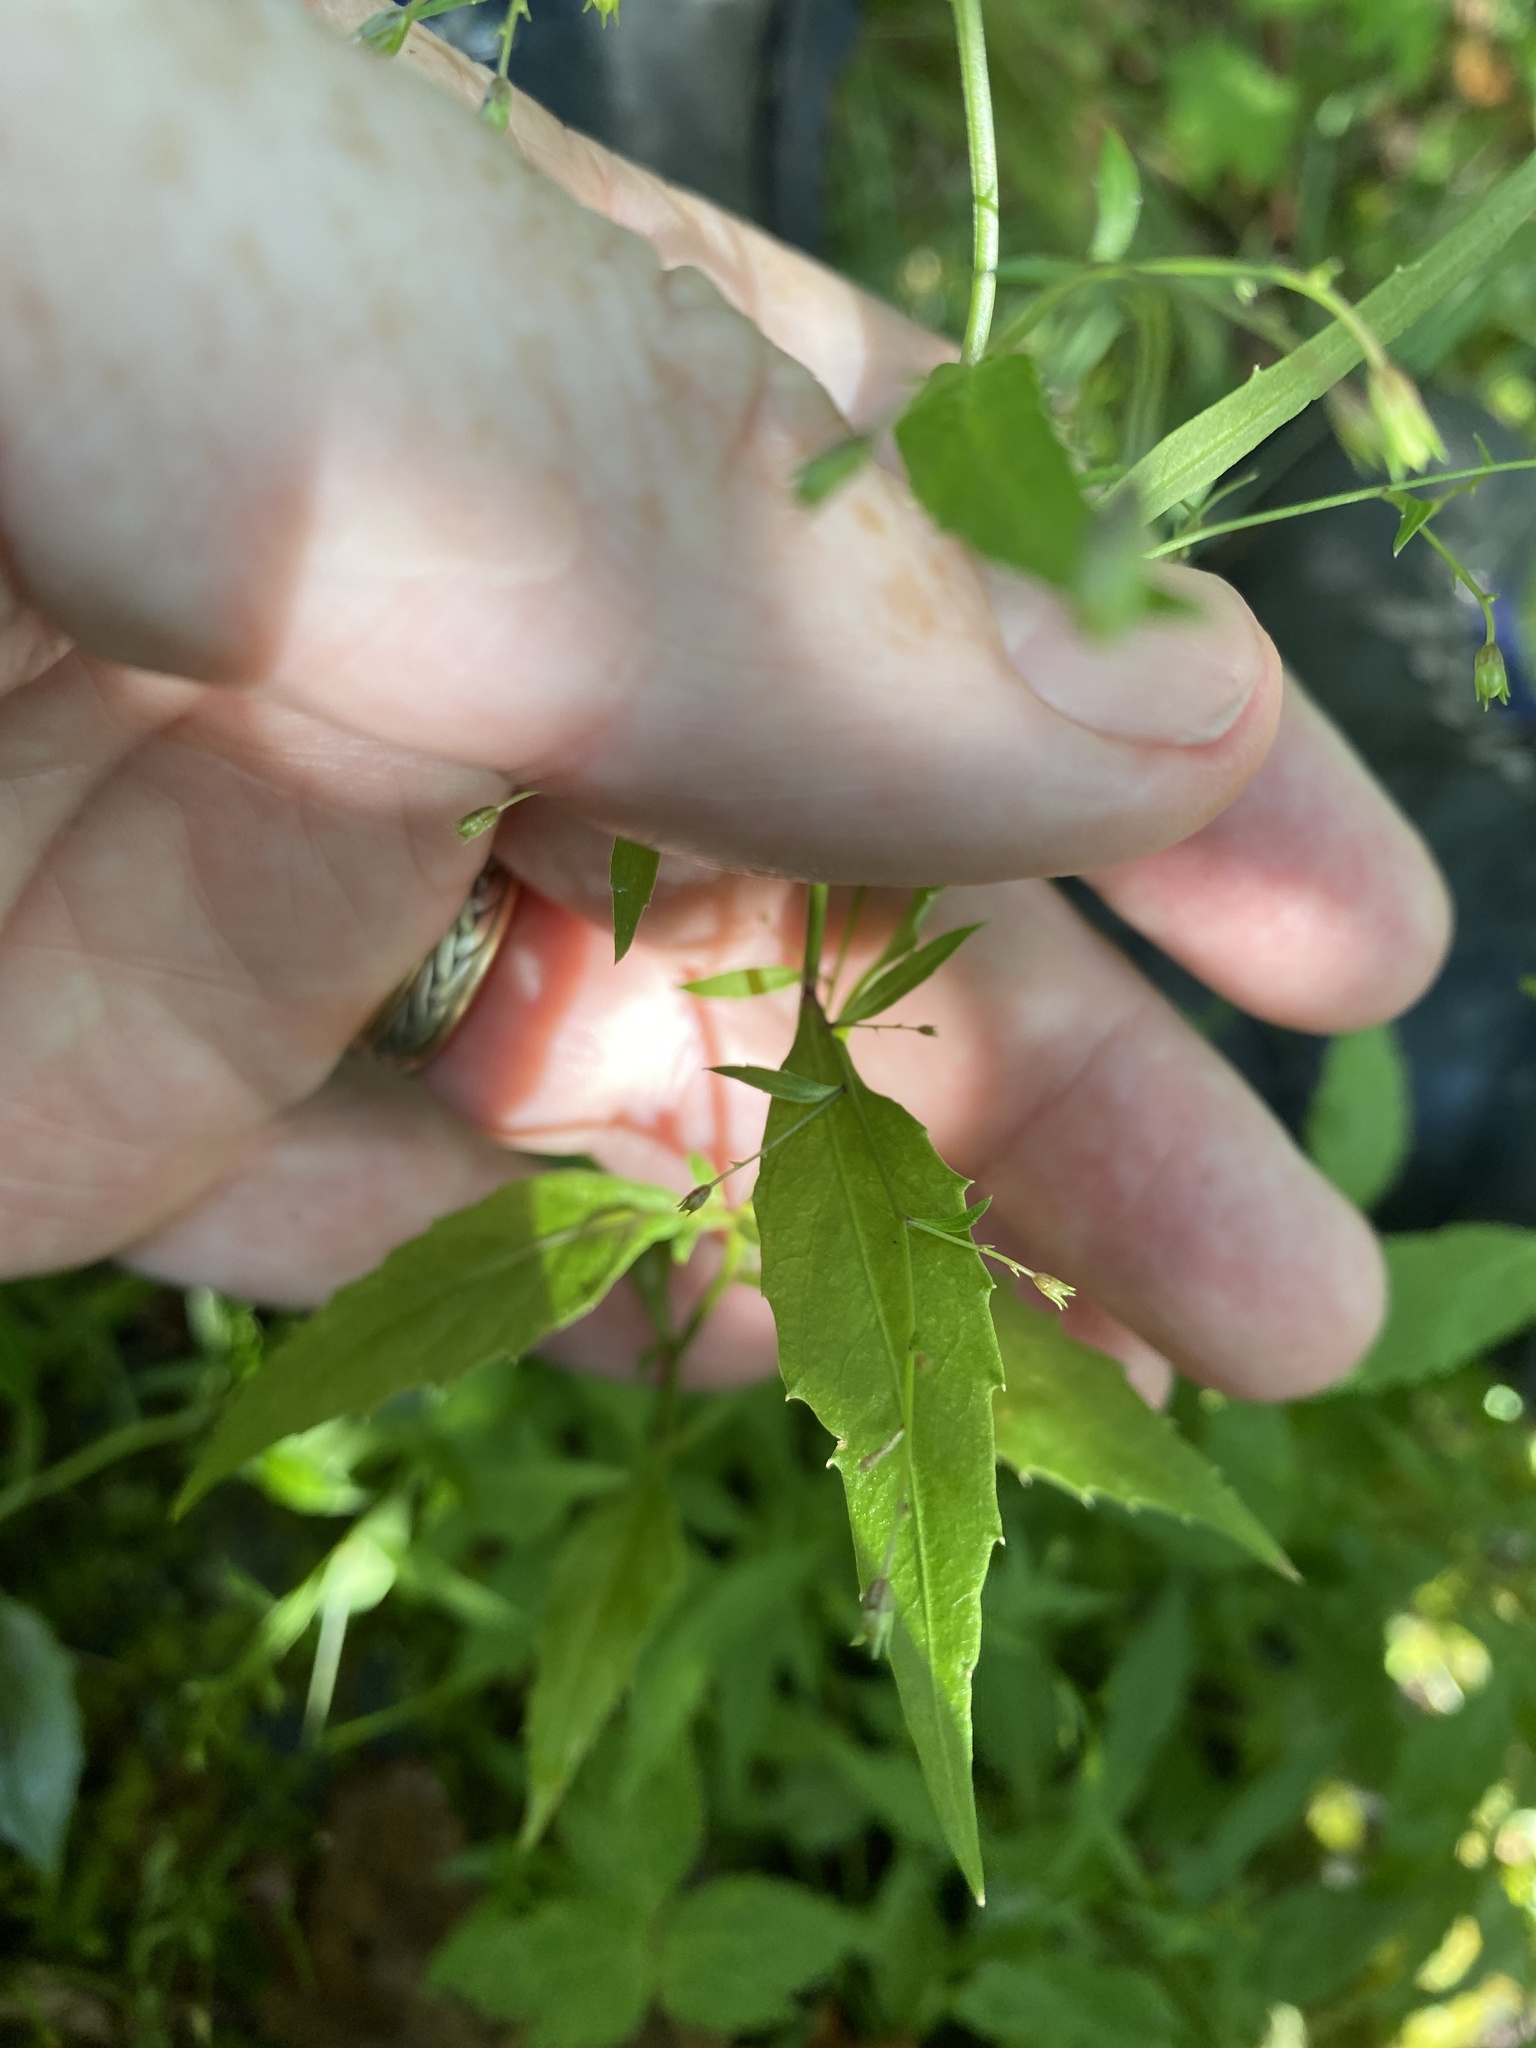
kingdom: Plantae
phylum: Tracheophyta
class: Magnoliopsida
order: Asterales
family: Campanulaceae
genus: Campanula
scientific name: Campanula divaricata
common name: Appalachian bellflower
